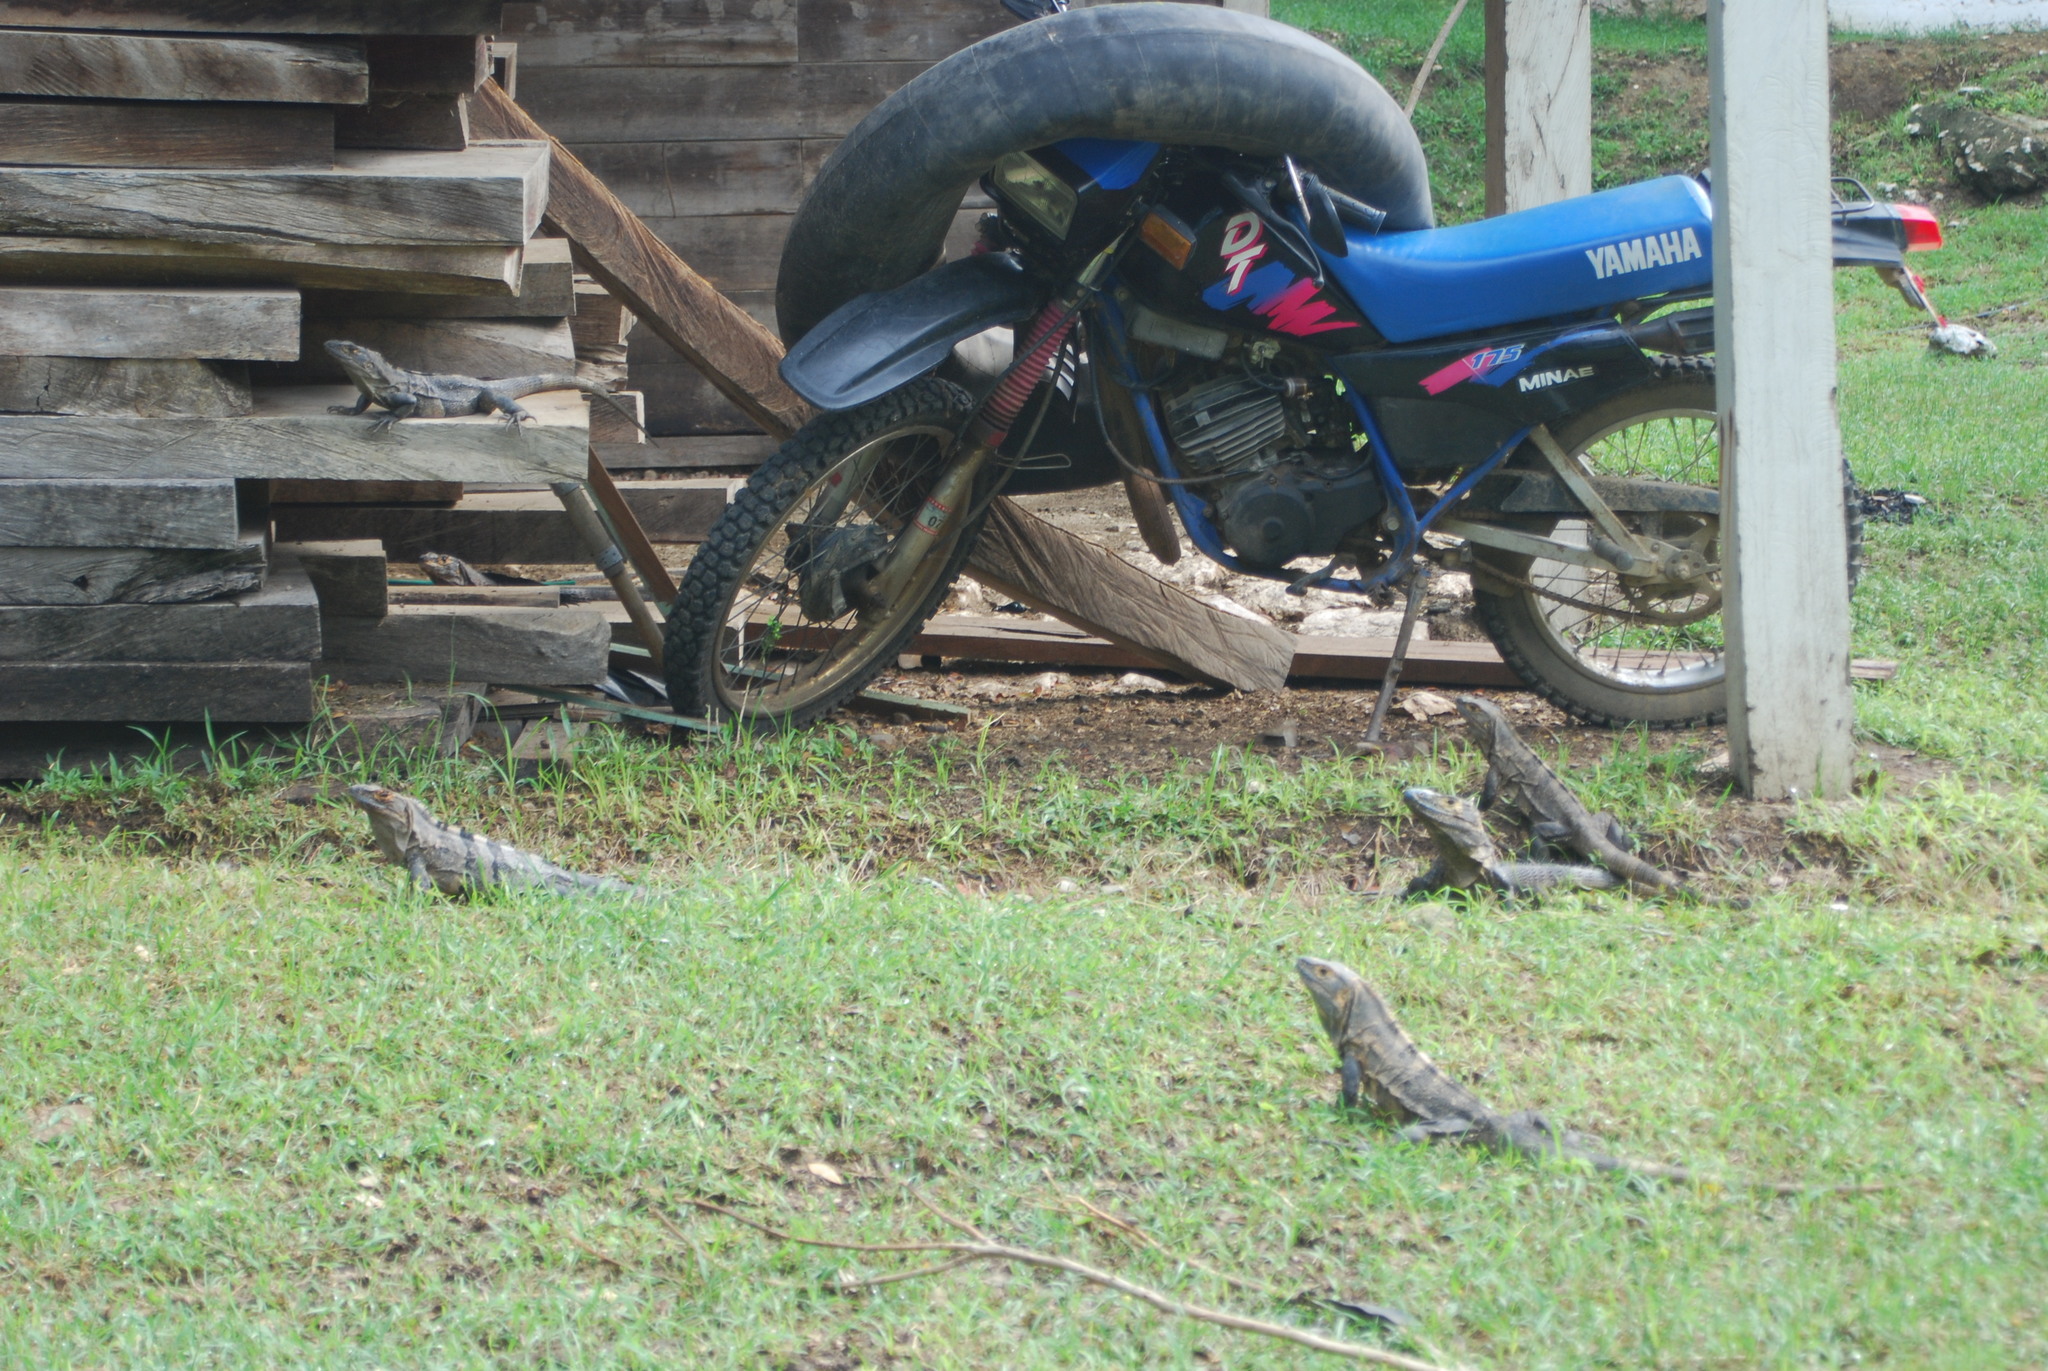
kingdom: Animalia
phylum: Chordata
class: Squamata
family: Iguanidae
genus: Ctenosaura
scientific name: Ctenosaura similis
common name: Black spiny-tailed iguana
